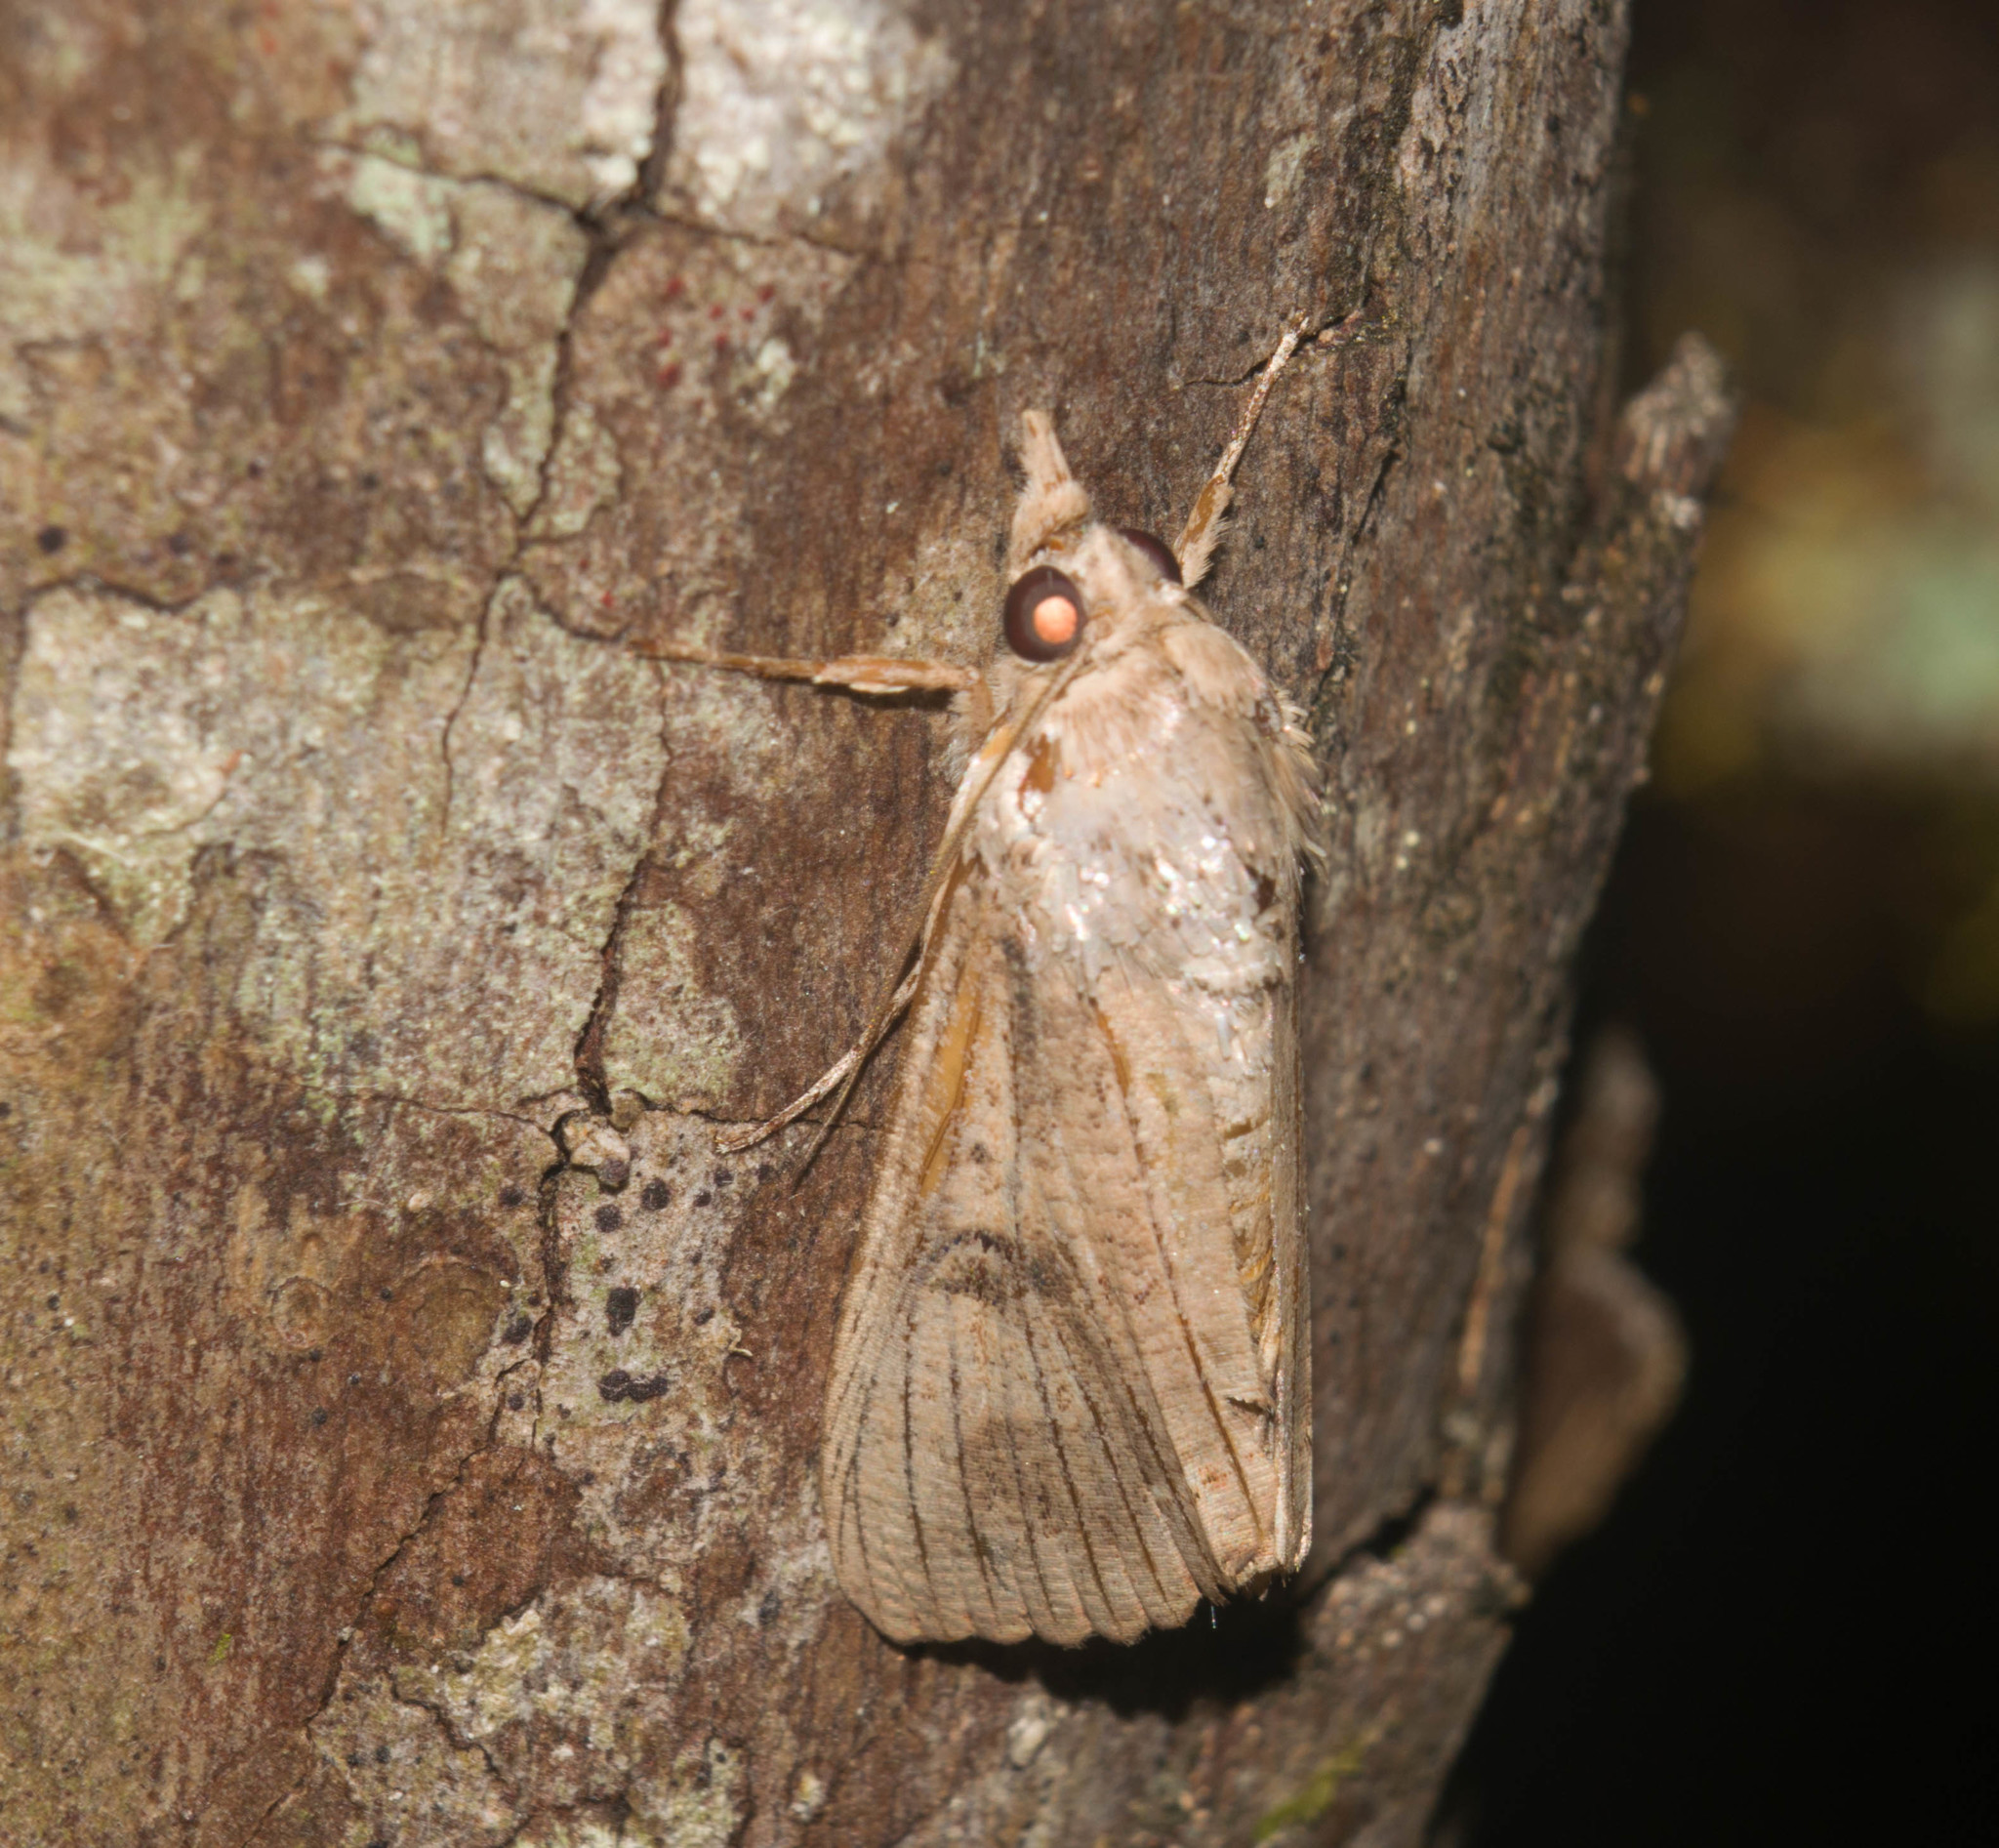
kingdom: Animalia
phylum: Arthropoda
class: Insecta
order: Lepidoptera
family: Erebidae
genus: Hypocala
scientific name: Hypocala deflorata
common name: Moth
